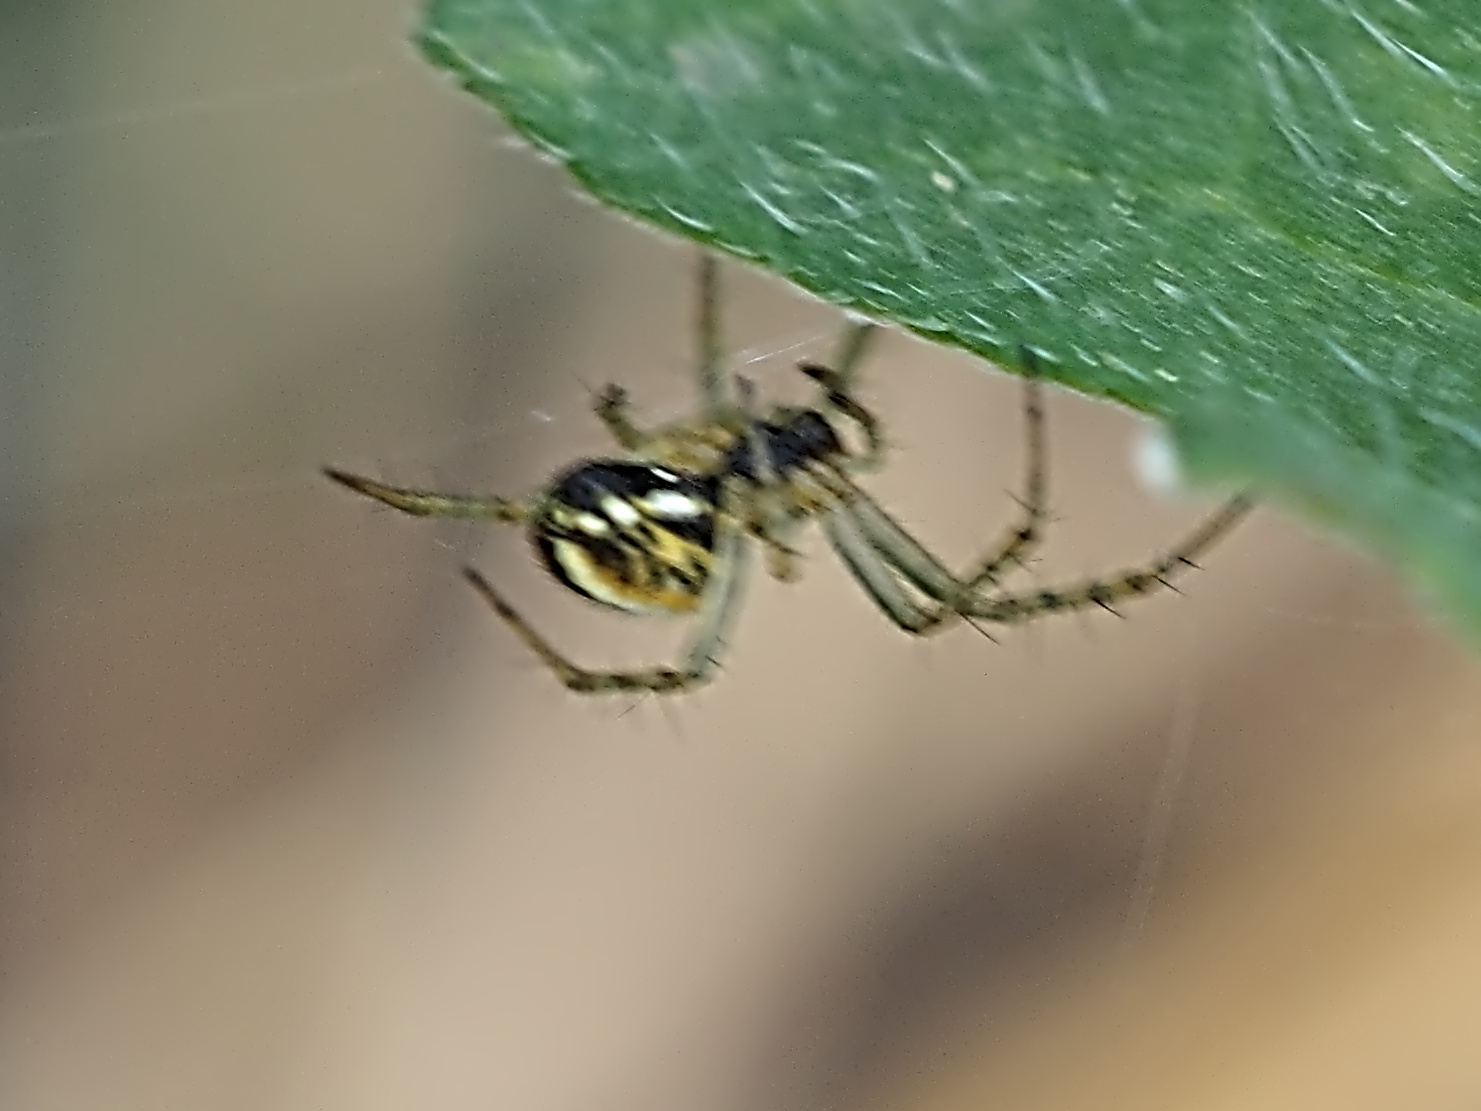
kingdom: Animalia
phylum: Arthropoda
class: Arachnida
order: Araneae
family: Araneidae
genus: Mangora
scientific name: Mangora acalypha
